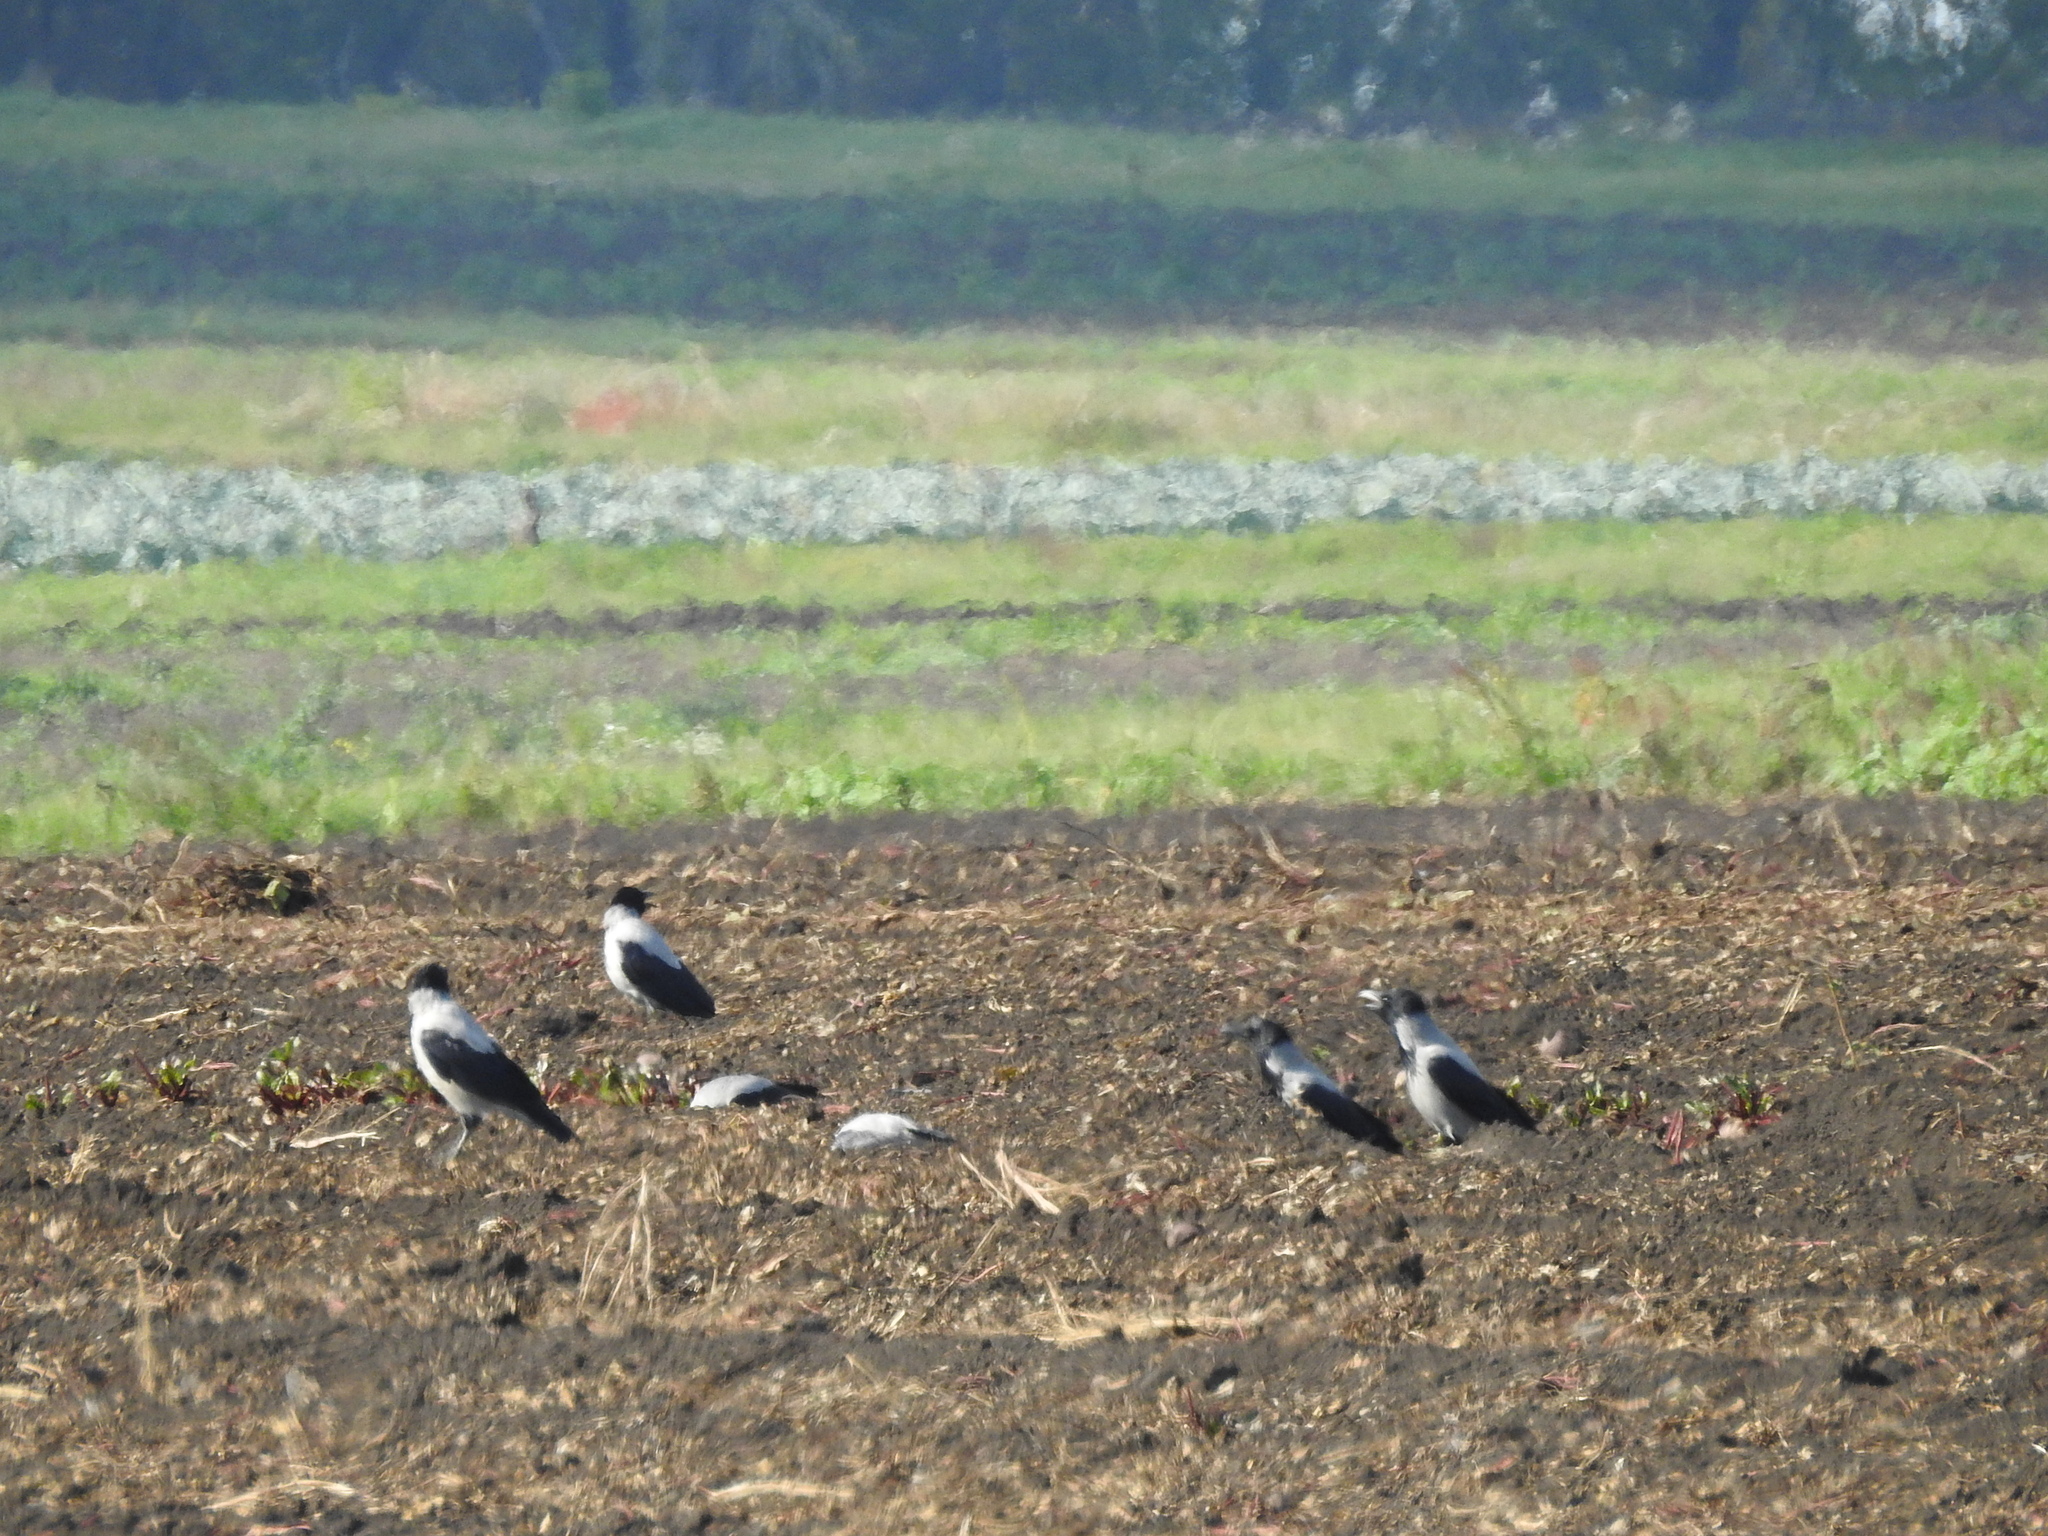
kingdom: Animalia
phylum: Chordata
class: Aves
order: Passeriformes
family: Corvidae
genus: Corvus
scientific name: Corvus cornix
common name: Hooded crow
